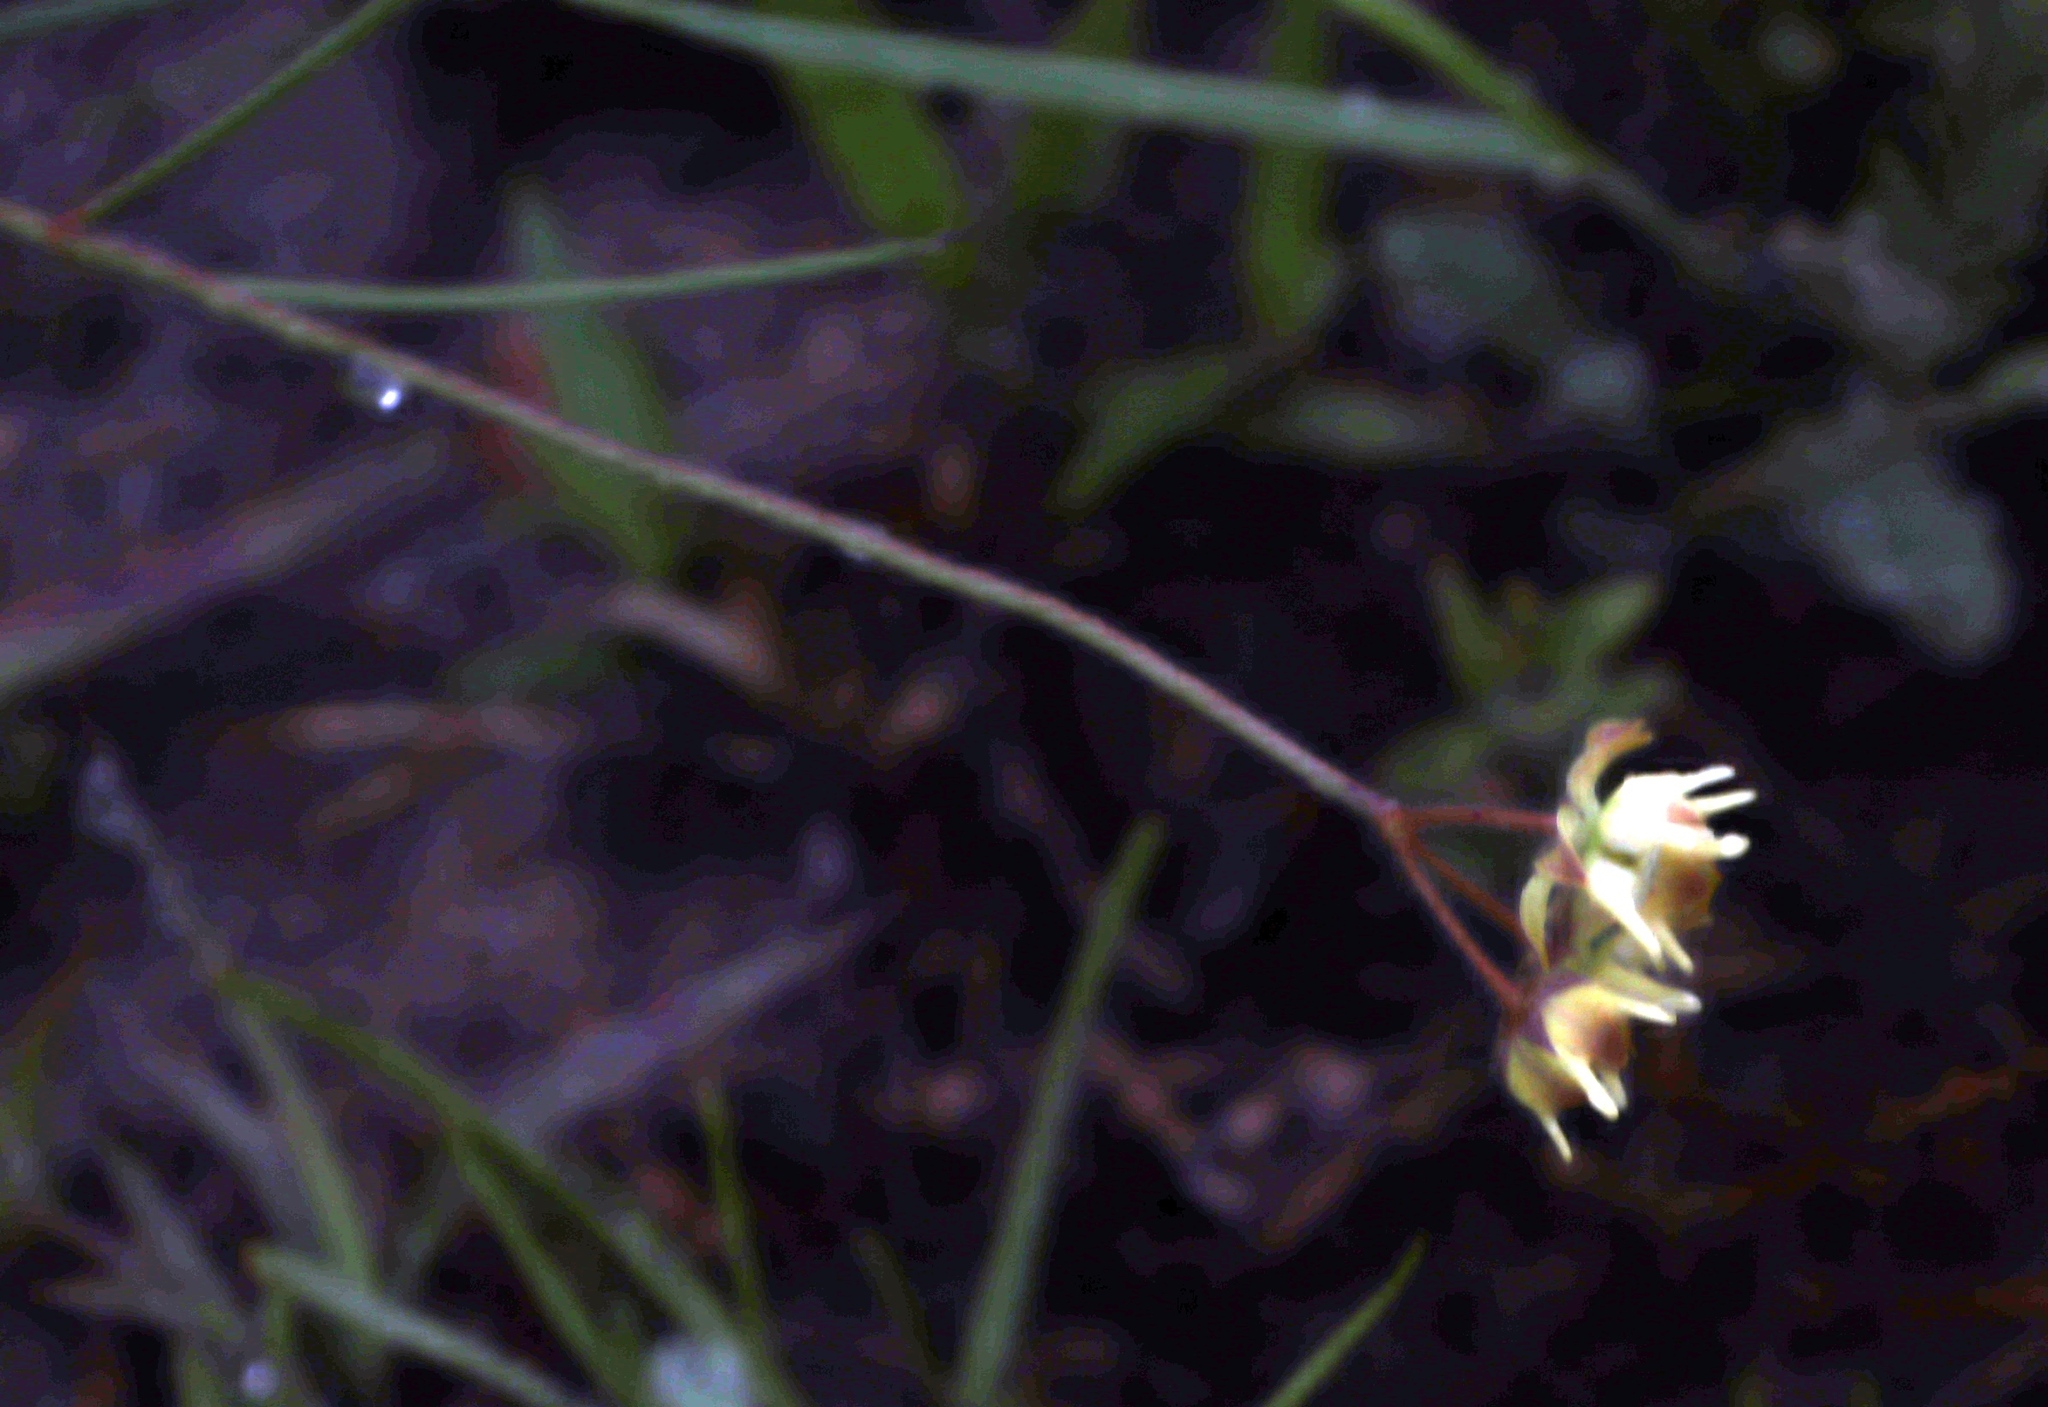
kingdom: Plantae
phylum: Tracheophyta
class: Magnoliopsida
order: Gentianales
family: Apocynaceae
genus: Asclepias
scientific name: Asclepias aurea
